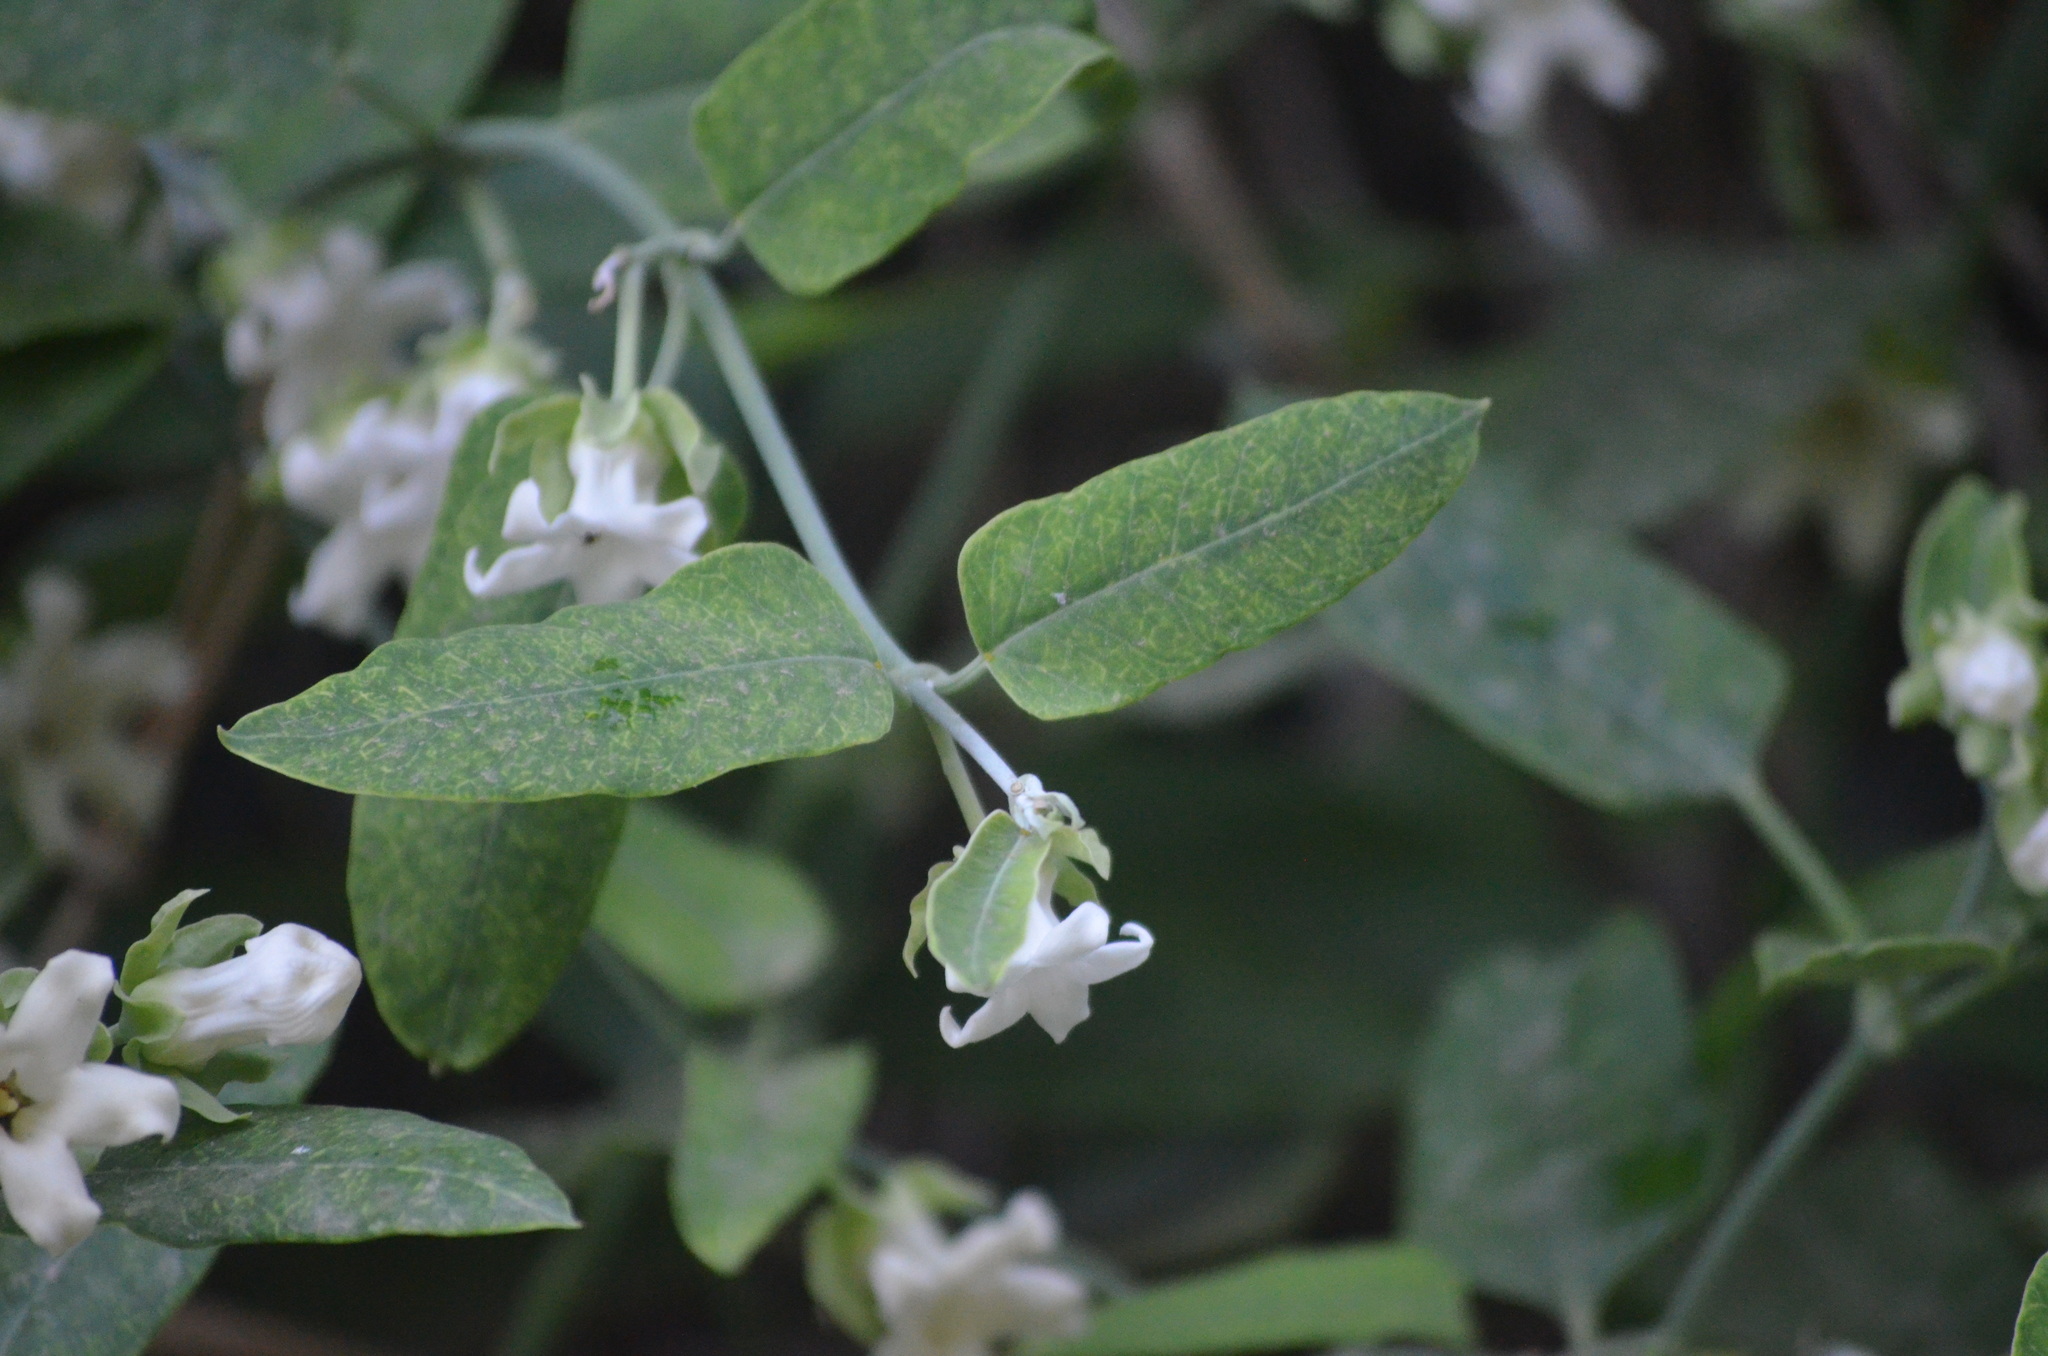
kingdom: Plantae
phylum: Tracheophyta
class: Magnoliopsida
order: Gentianales
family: Apocynaceae
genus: Araujia
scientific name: Araujia sericifera
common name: White bladderflower
